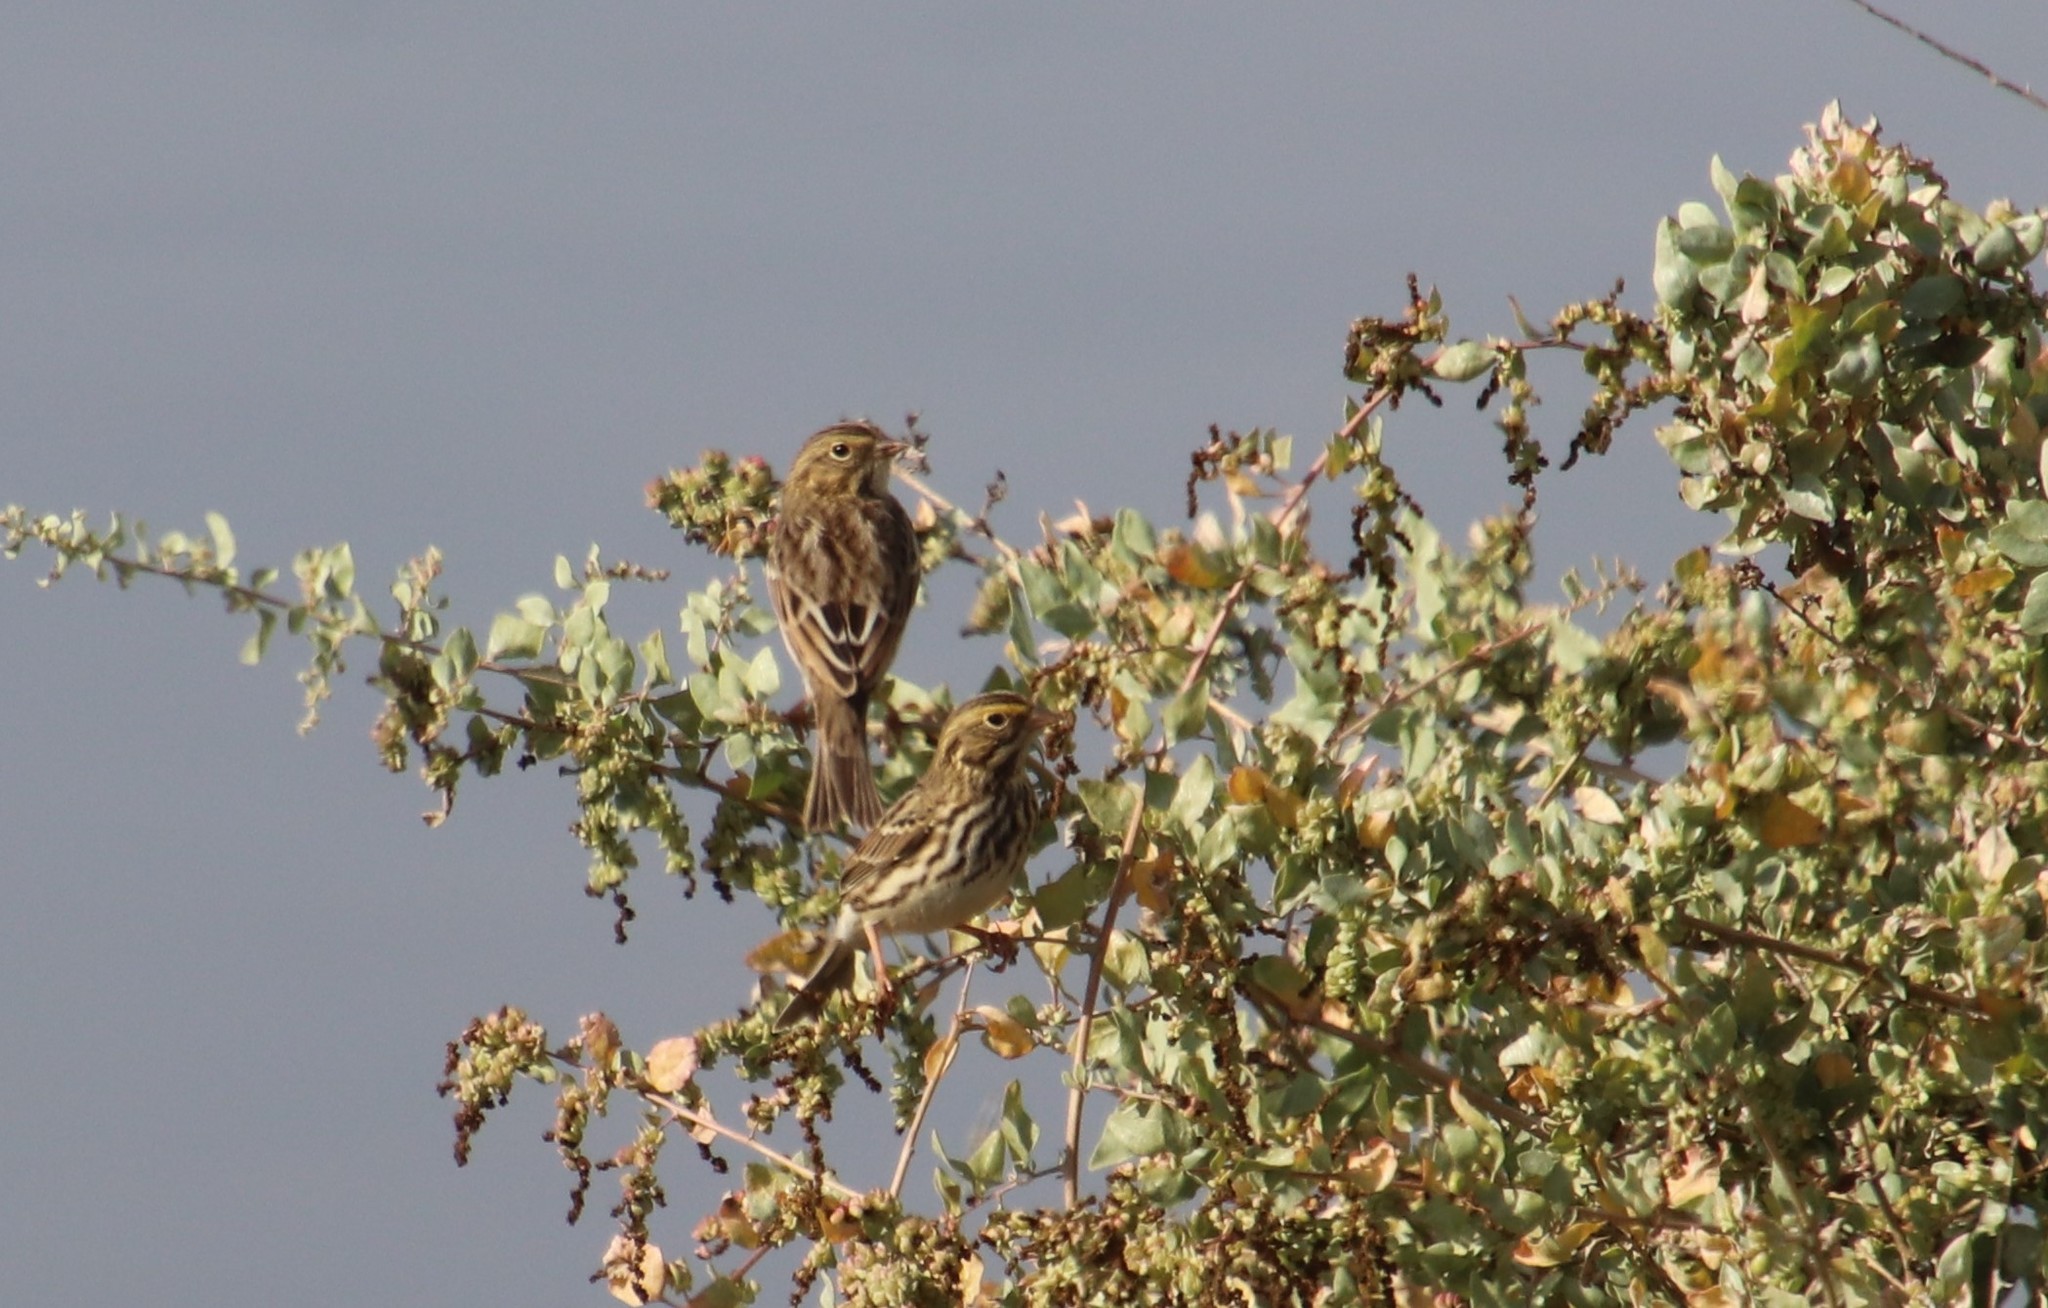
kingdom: Animalia
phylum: Chordata
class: Aves
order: Passeriformes
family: Passerellidae
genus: Passerculus
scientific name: Passerculus sandwichensis
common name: Savannah sparrow
